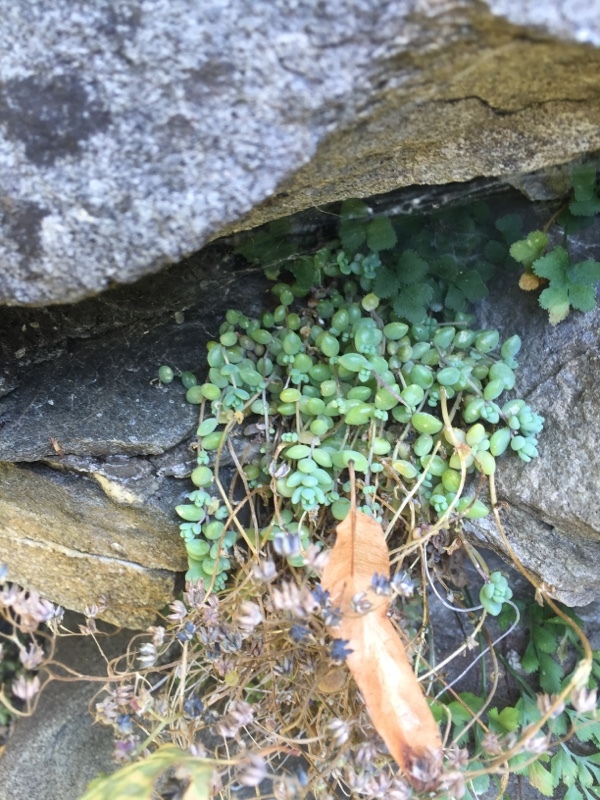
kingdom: Plantae
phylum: Tracheophyta
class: Magnoliopsida
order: Saxifragales
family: Crassulaceae
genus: Sedum
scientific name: Sedum dasyphyllum
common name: Thick-leaf stonecrop
